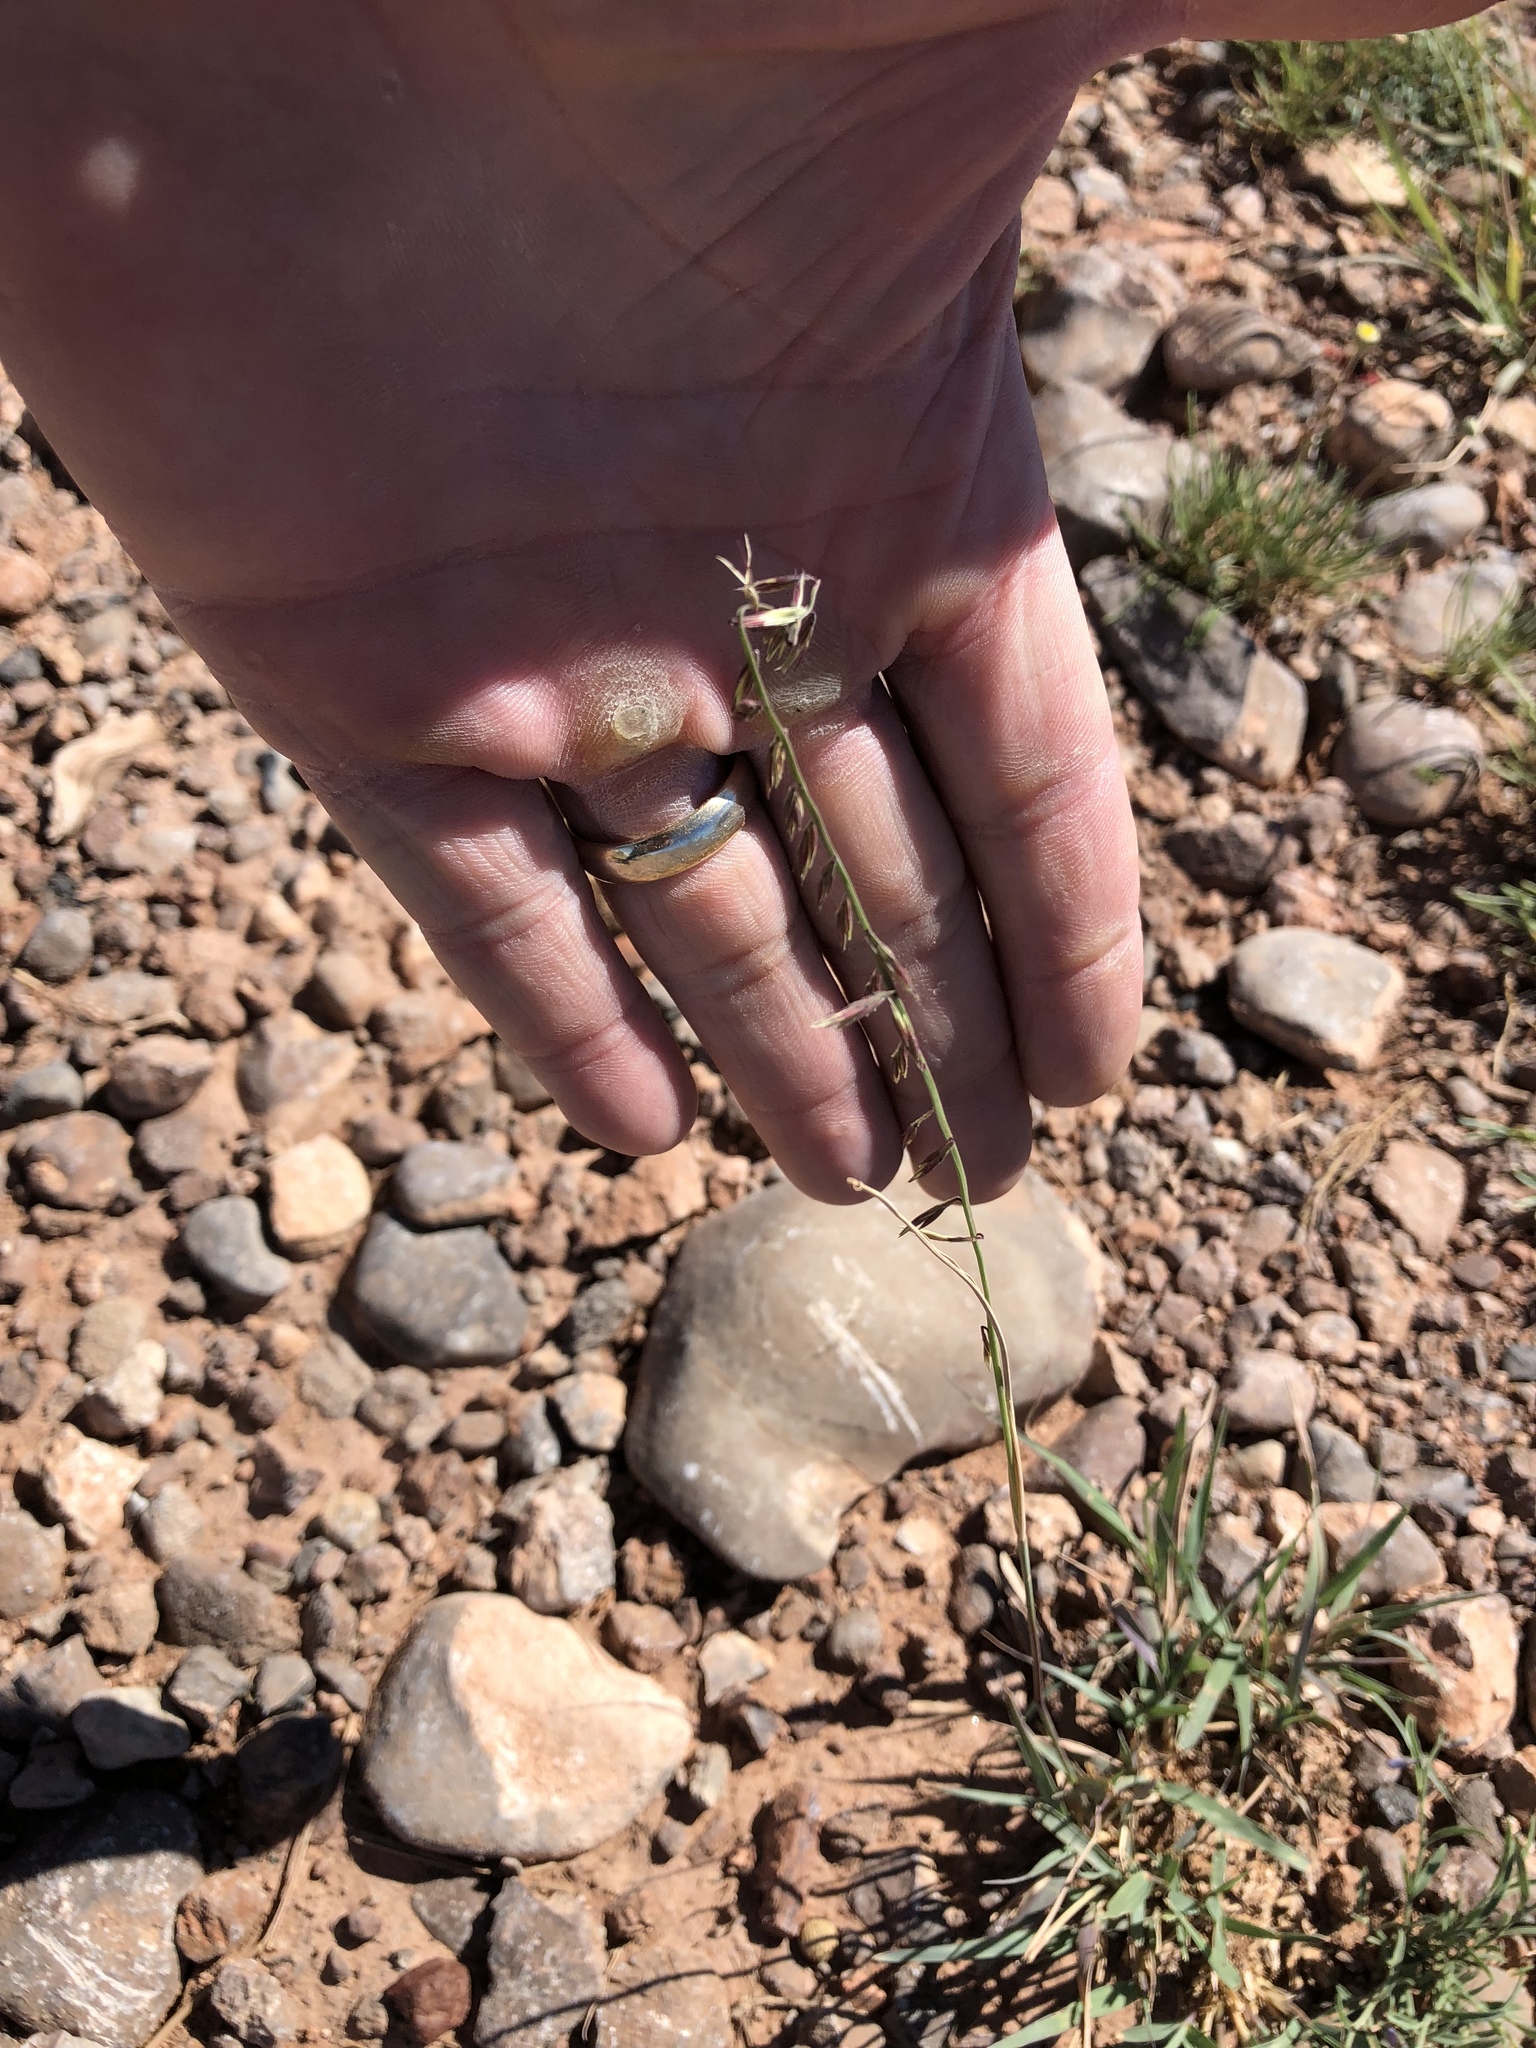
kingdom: Plantae
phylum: Tracheophyta
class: Liliopsida
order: Poales
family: Poaceae
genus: Bouteloua
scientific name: Bouteloua curtipendula
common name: Side-oats grama
